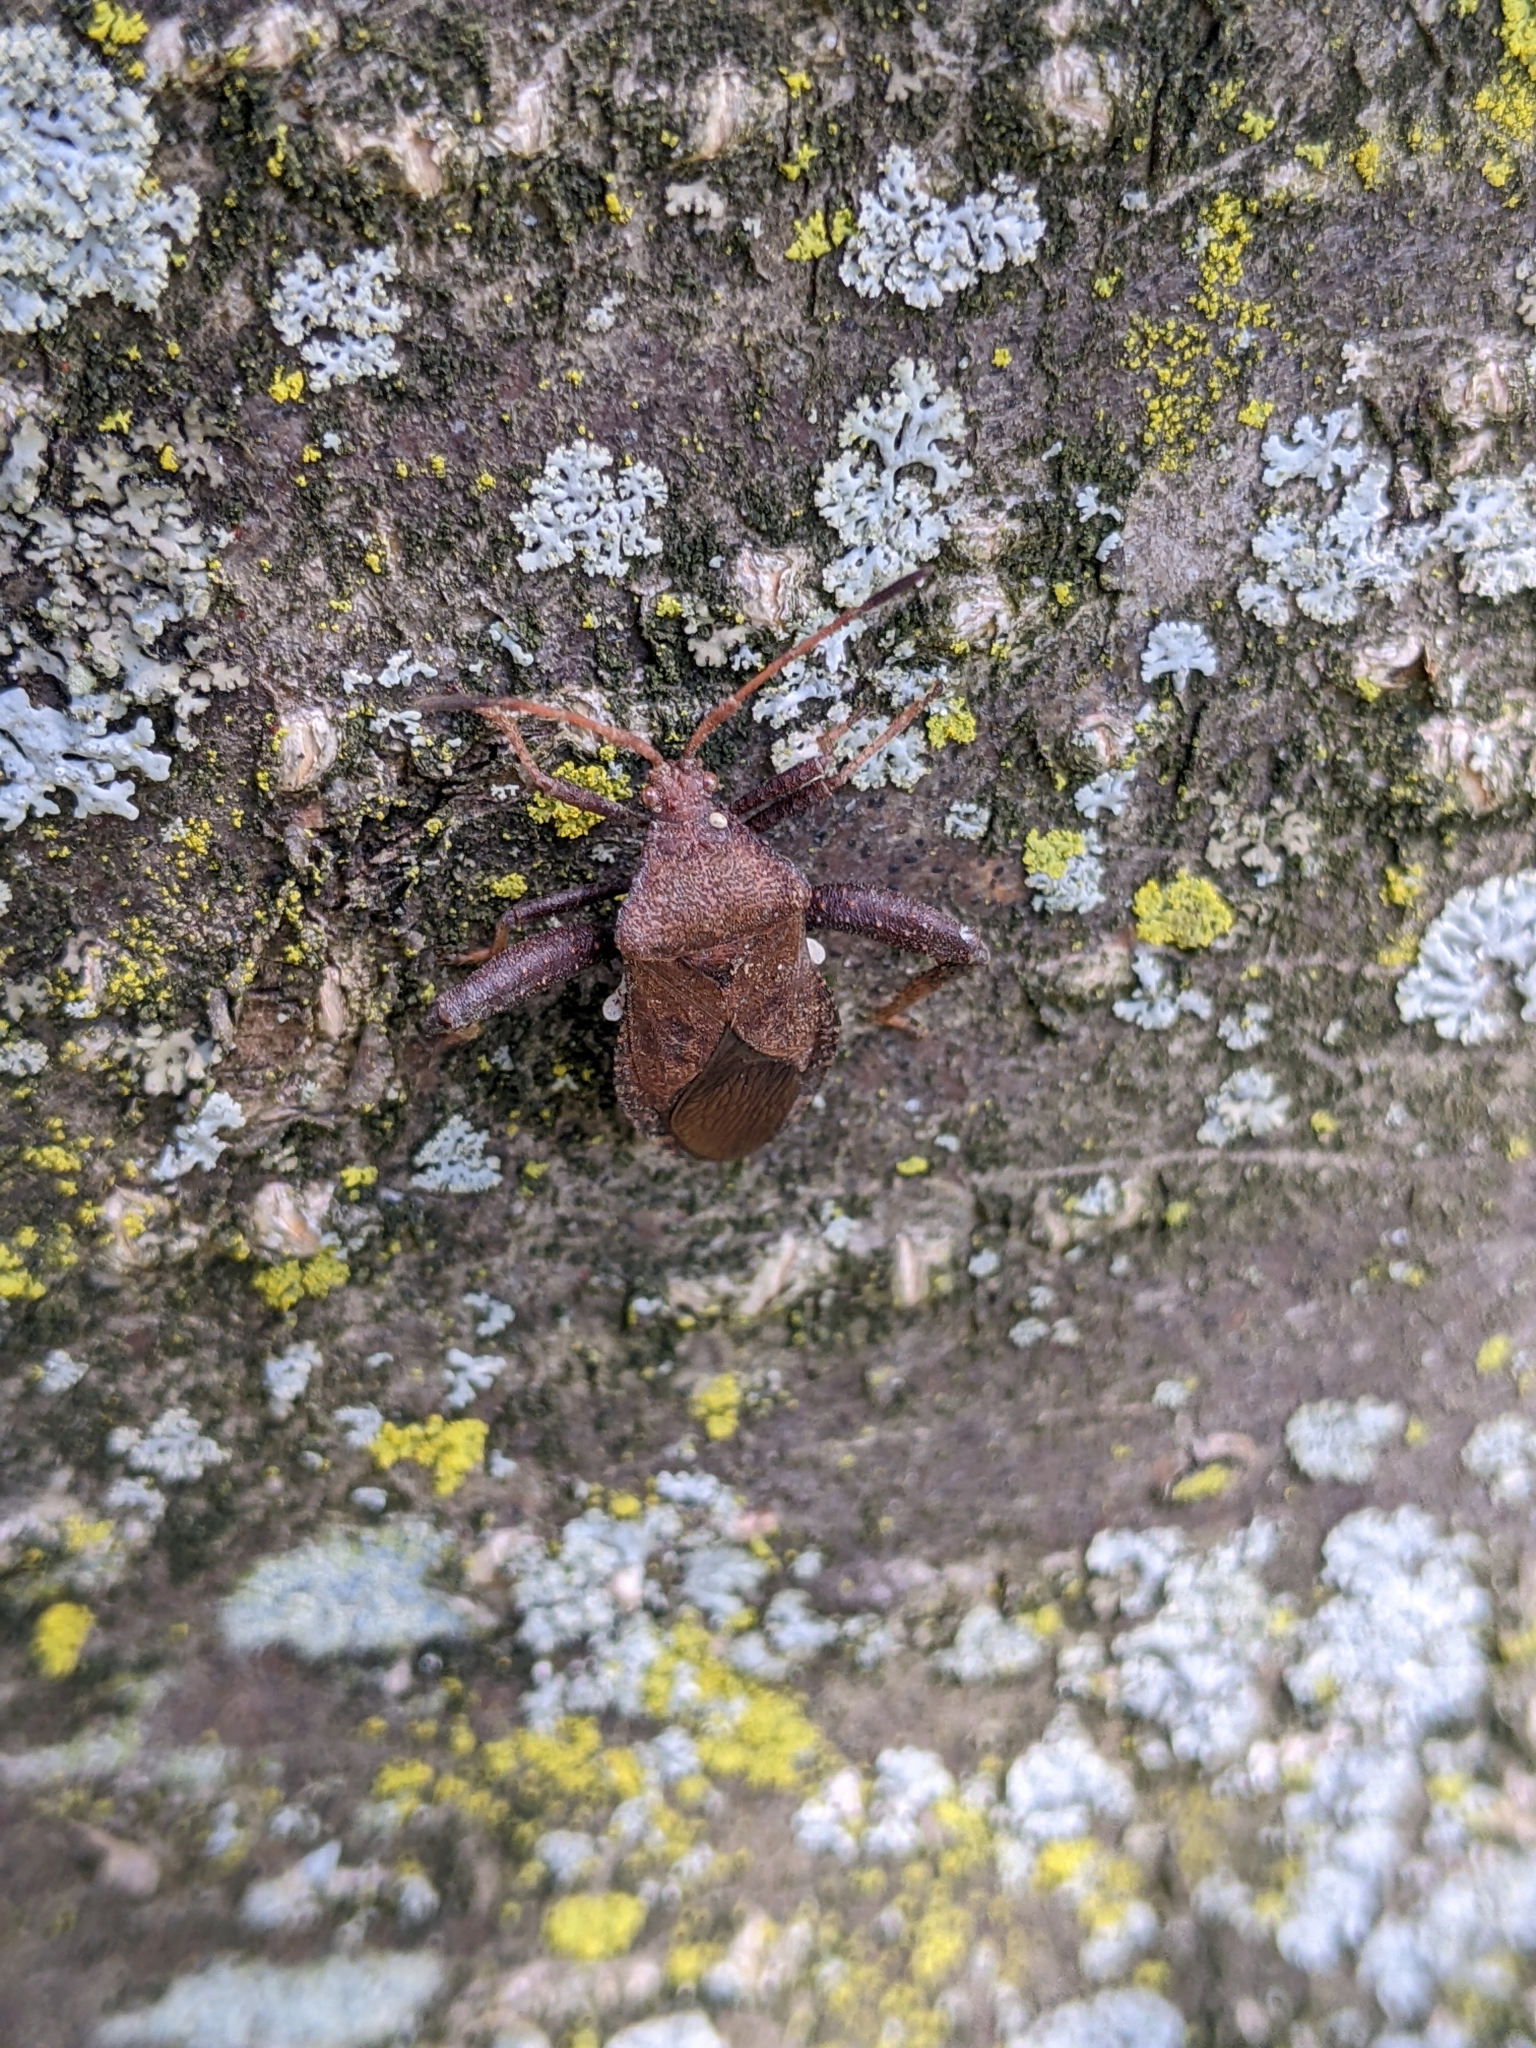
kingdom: Animalia
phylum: Arthropoda
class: Insecta
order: Hemiptera
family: Coreidae
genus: Euthochtha
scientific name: Euthochtha galeator
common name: Helmeted squash bug
